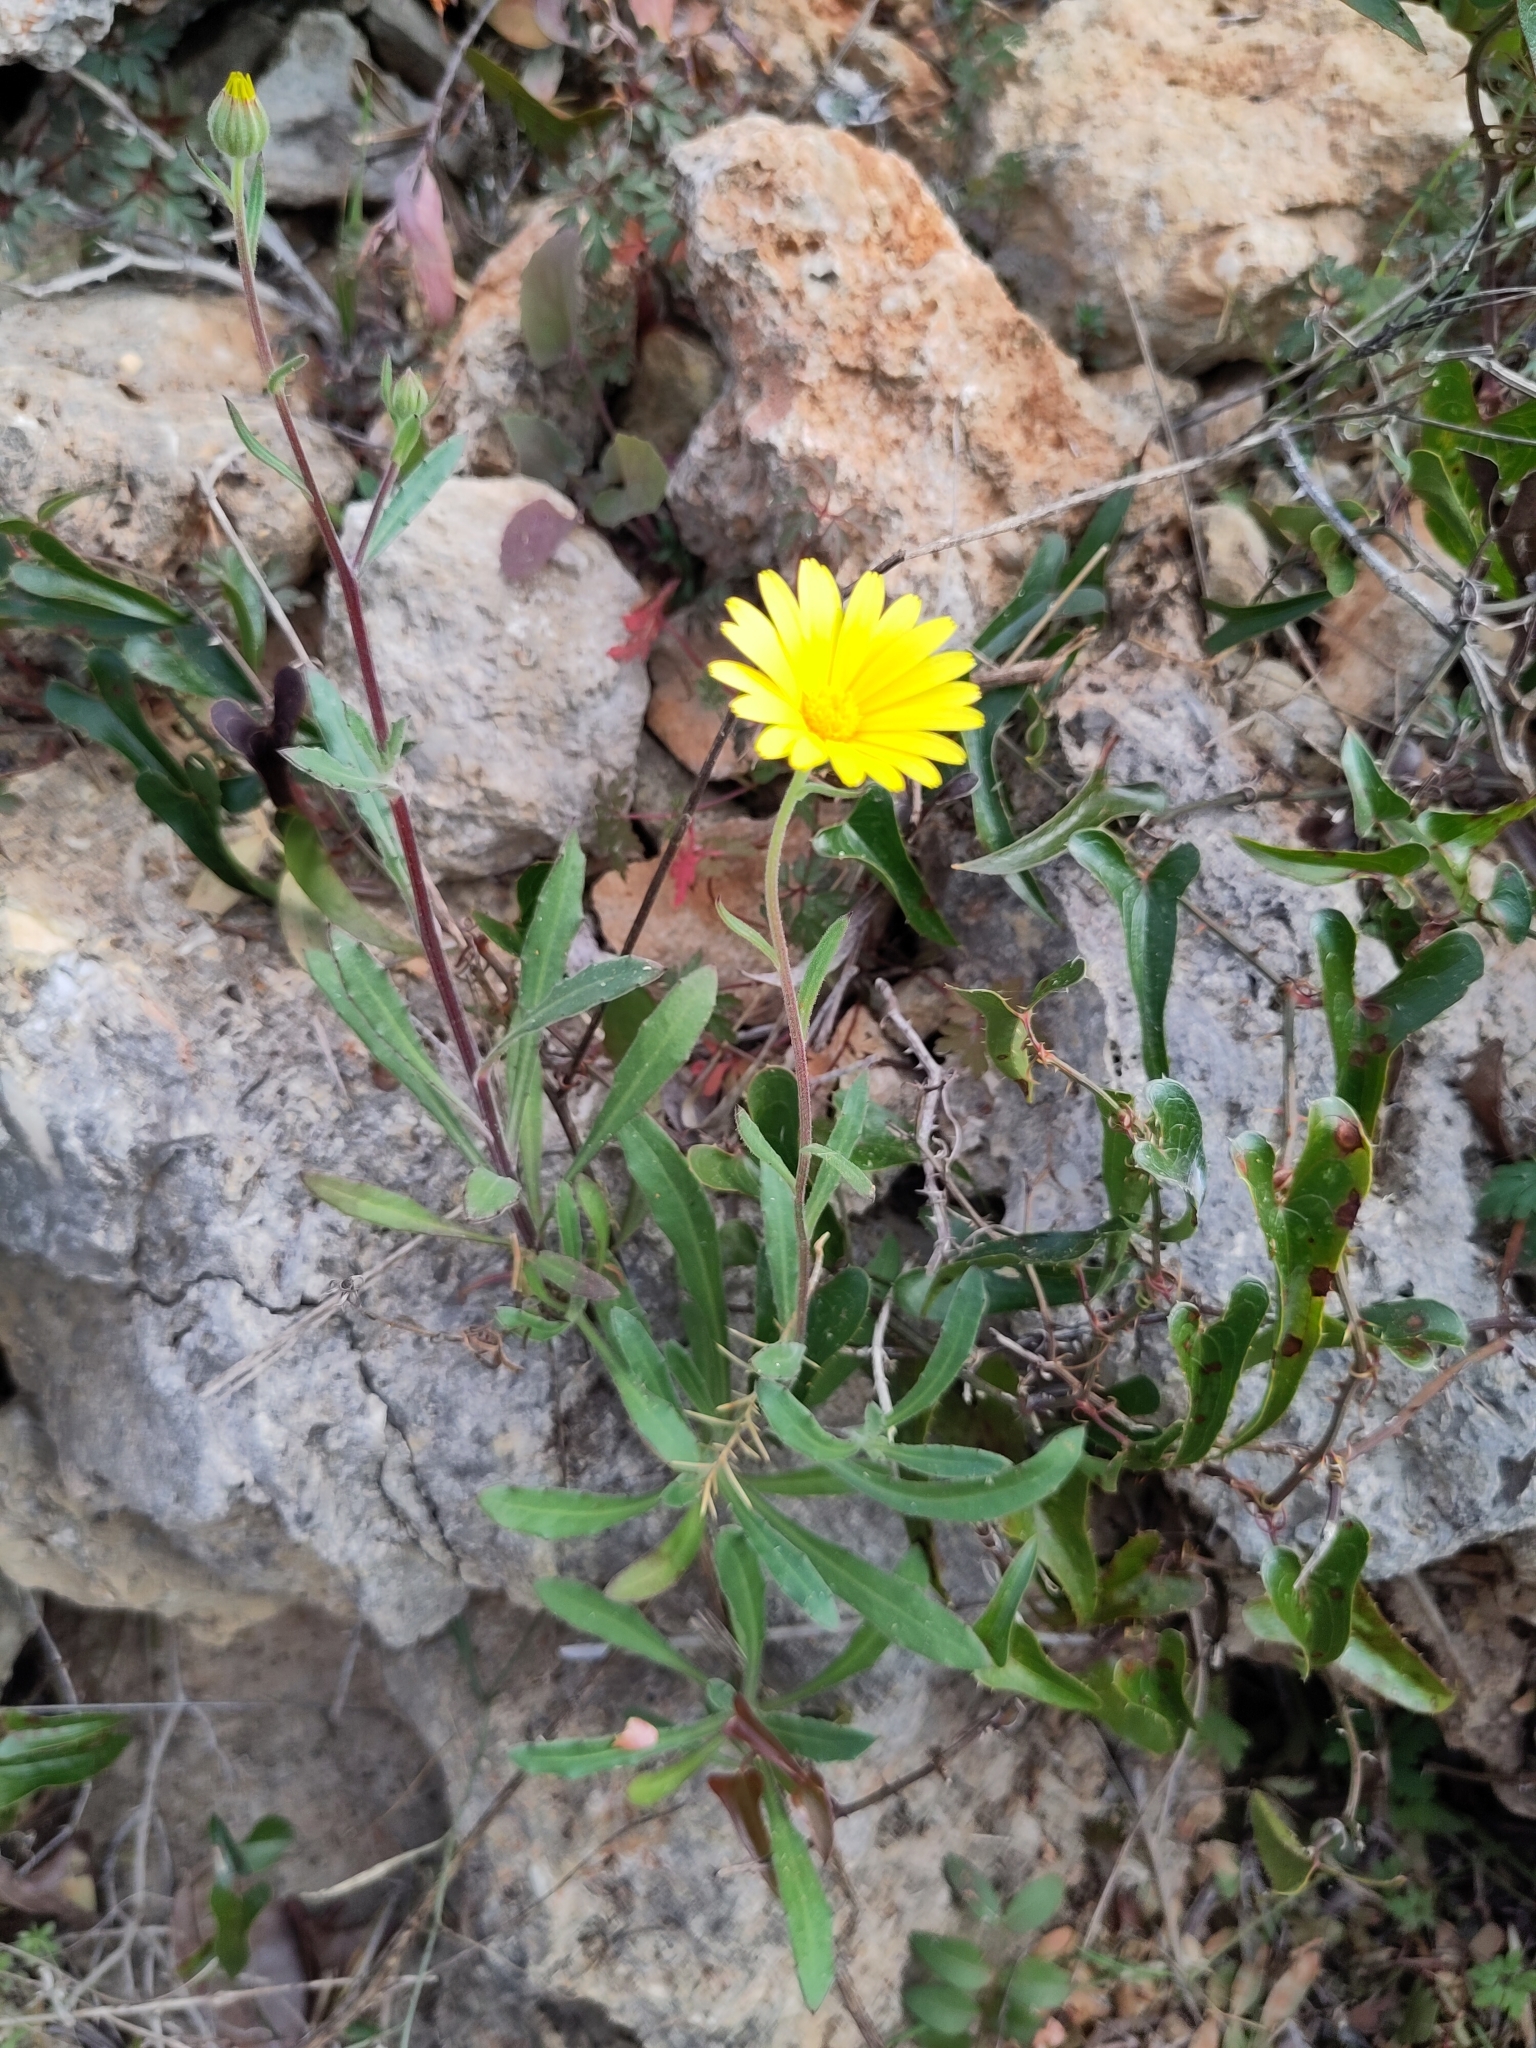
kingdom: Plantae
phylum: Tracheophyta
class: Magnoliopsida
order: Asterales
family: Asteraceae
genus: Calendula
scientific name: Calendula suffruticosa
